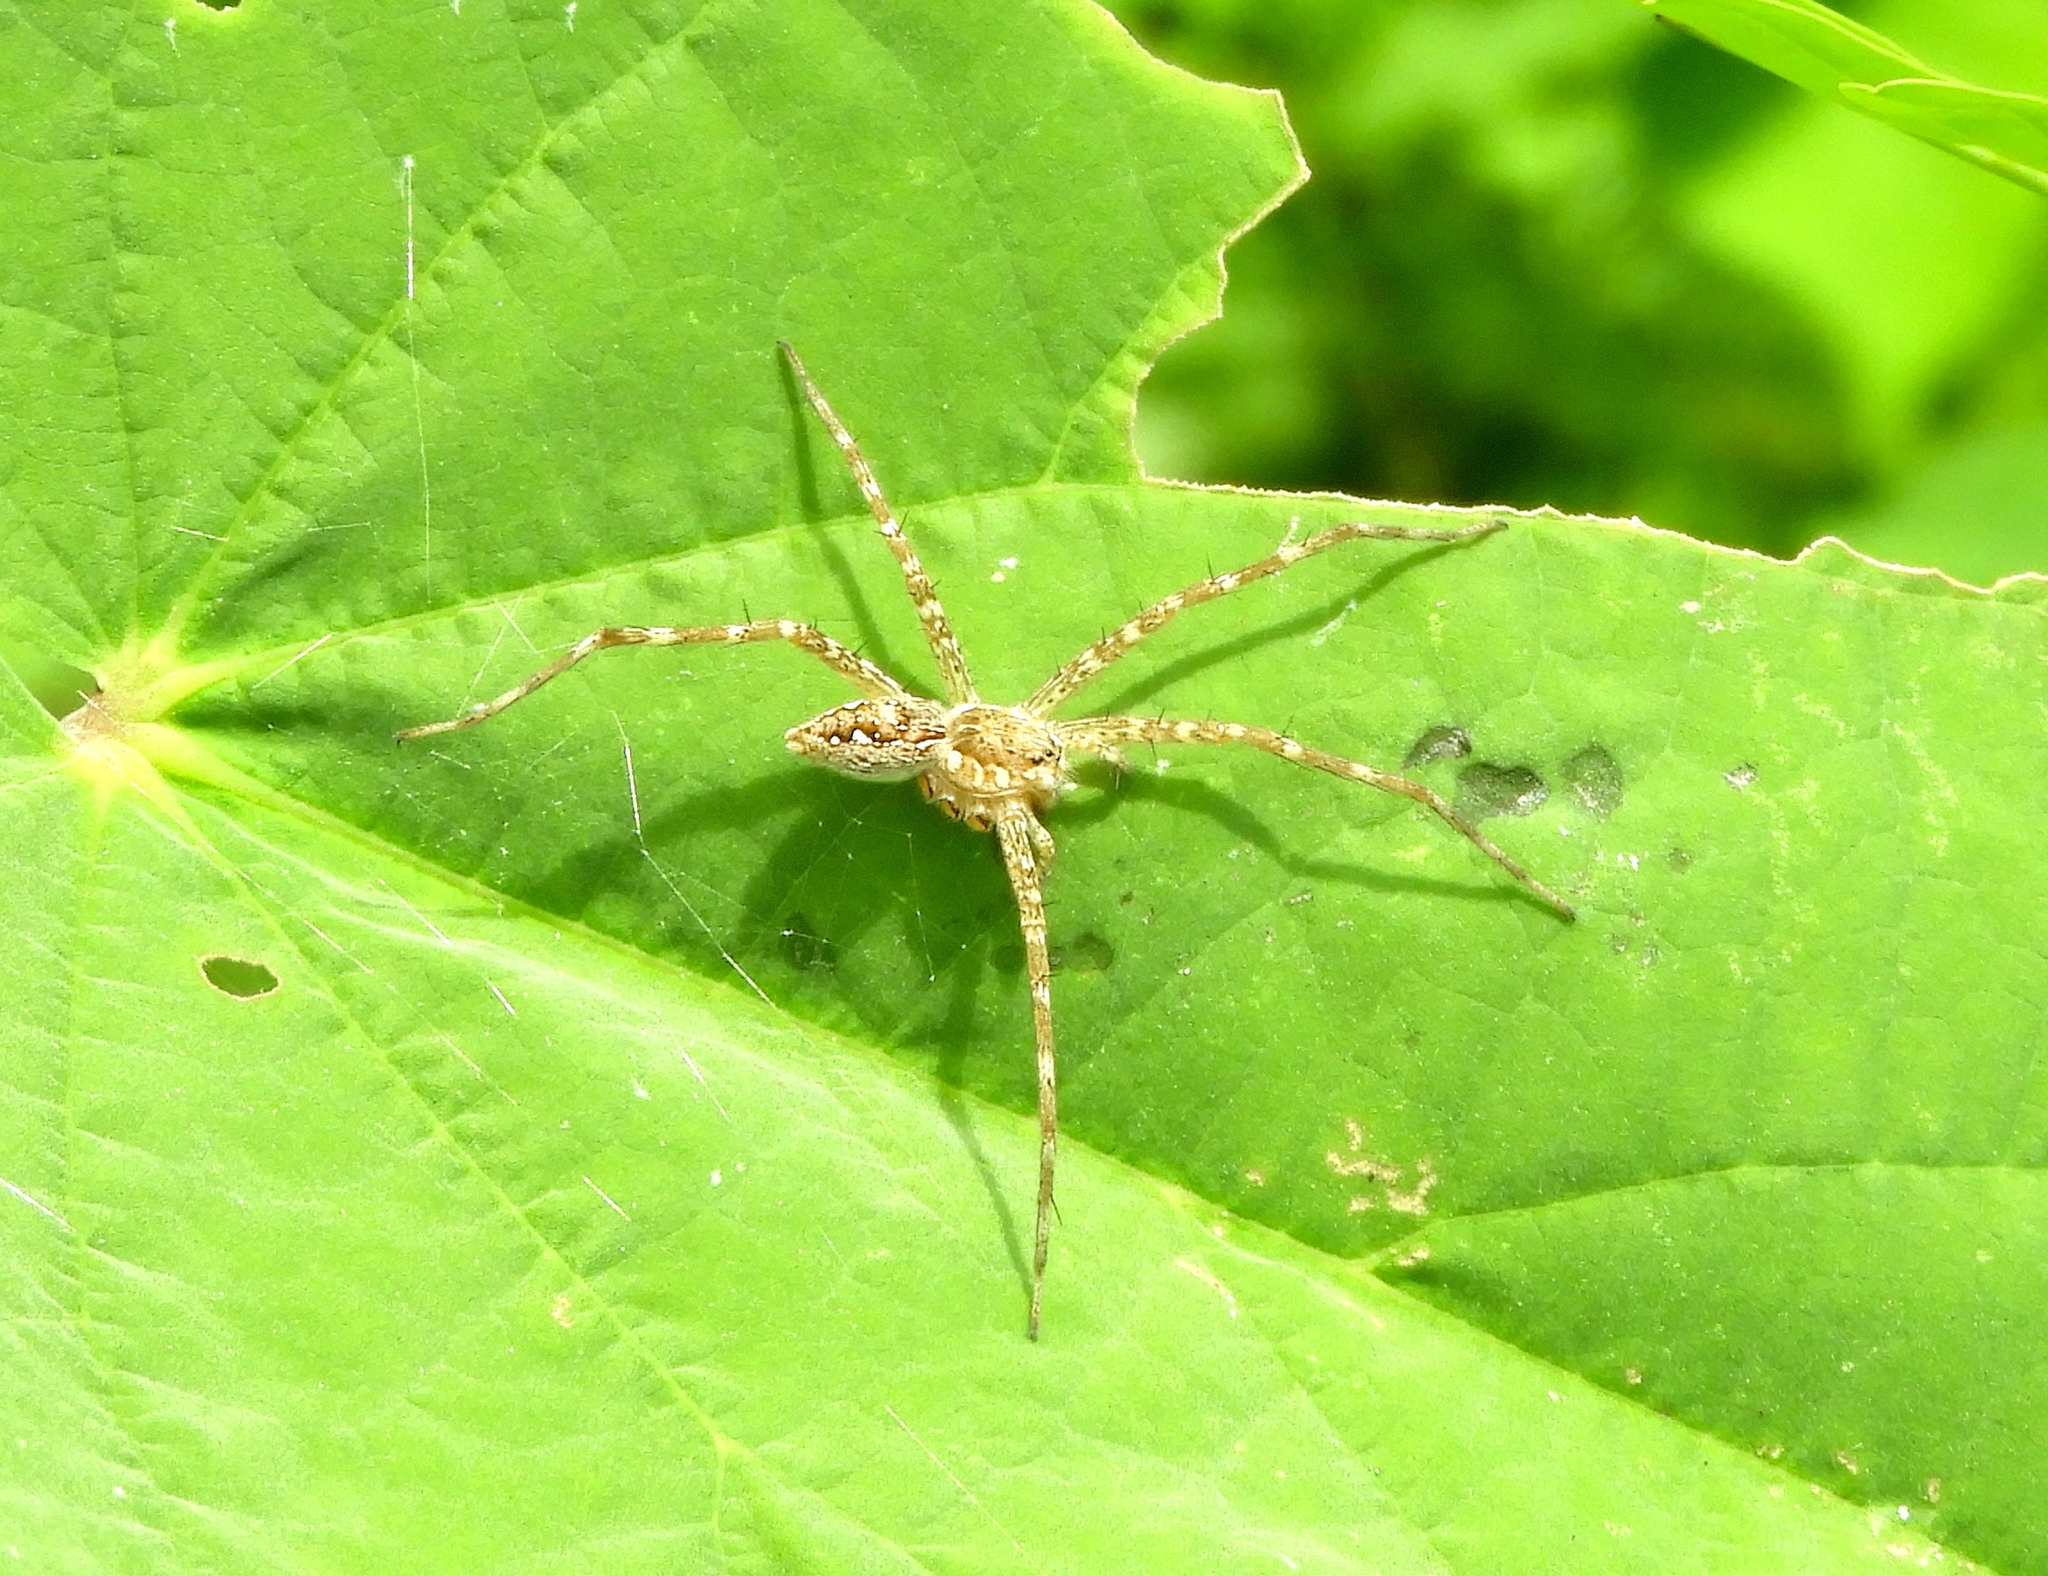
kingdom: Animalia
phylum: Arthropoda
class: Arachnida
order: Araneae
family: Pisauridae
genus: Tinus
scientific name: Tinus
